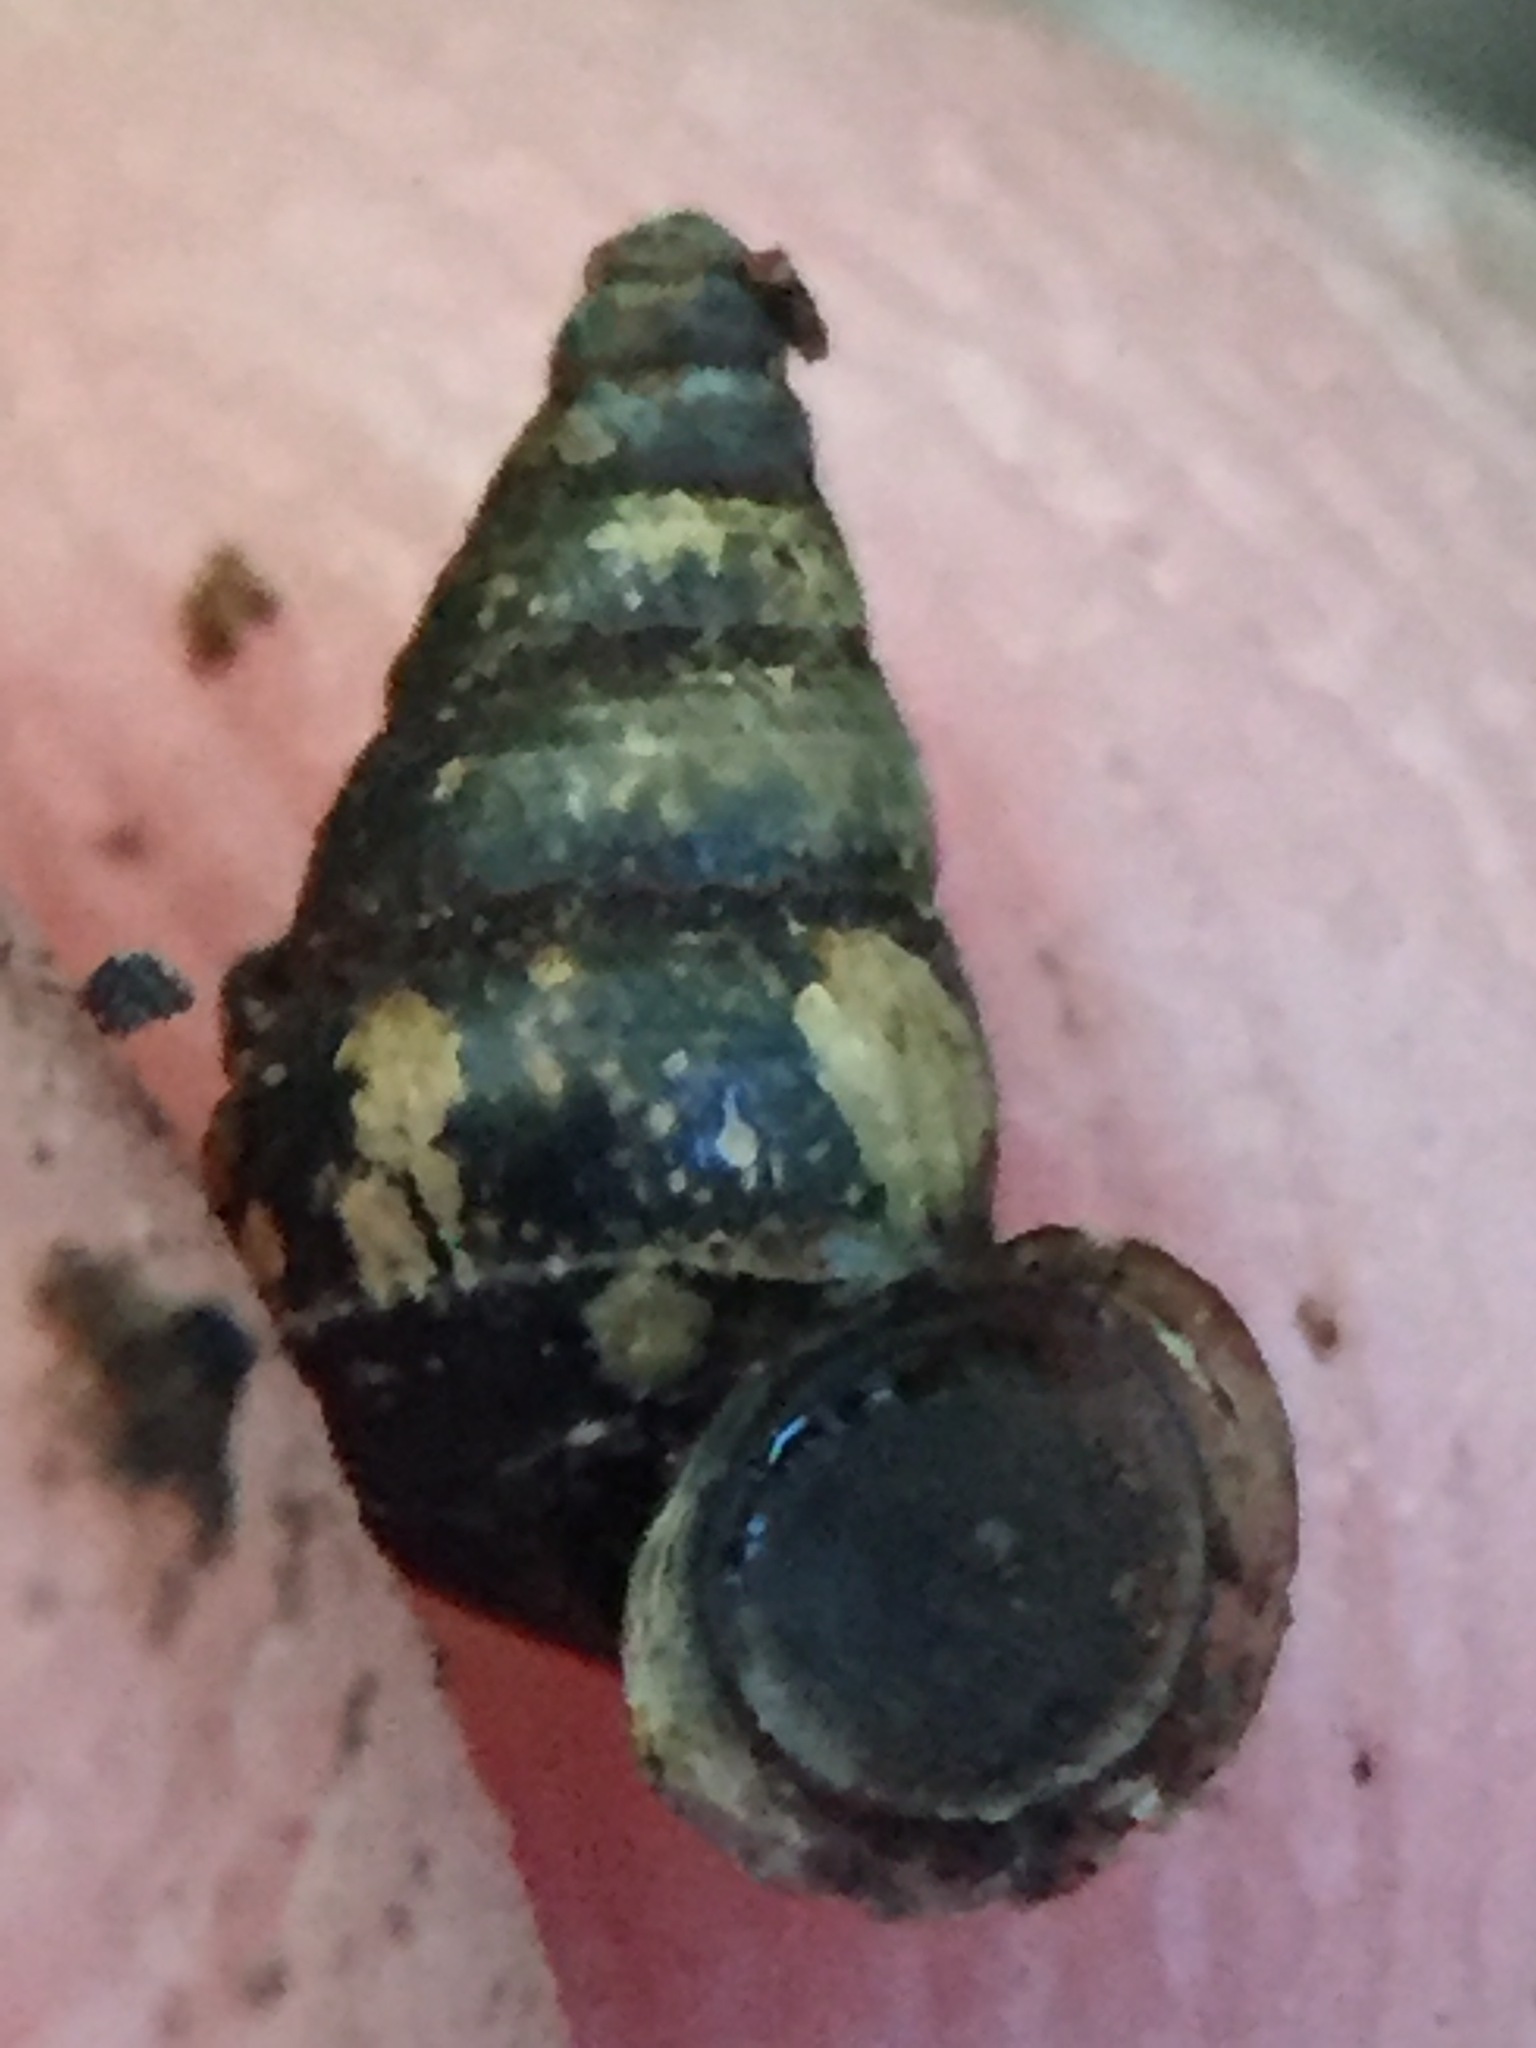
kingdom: Animalia
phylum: Mollusca
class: Gastropoda
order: Architaenioglossa
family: Pupinidae
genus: Liarea
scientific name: Liarea hochstetteri
